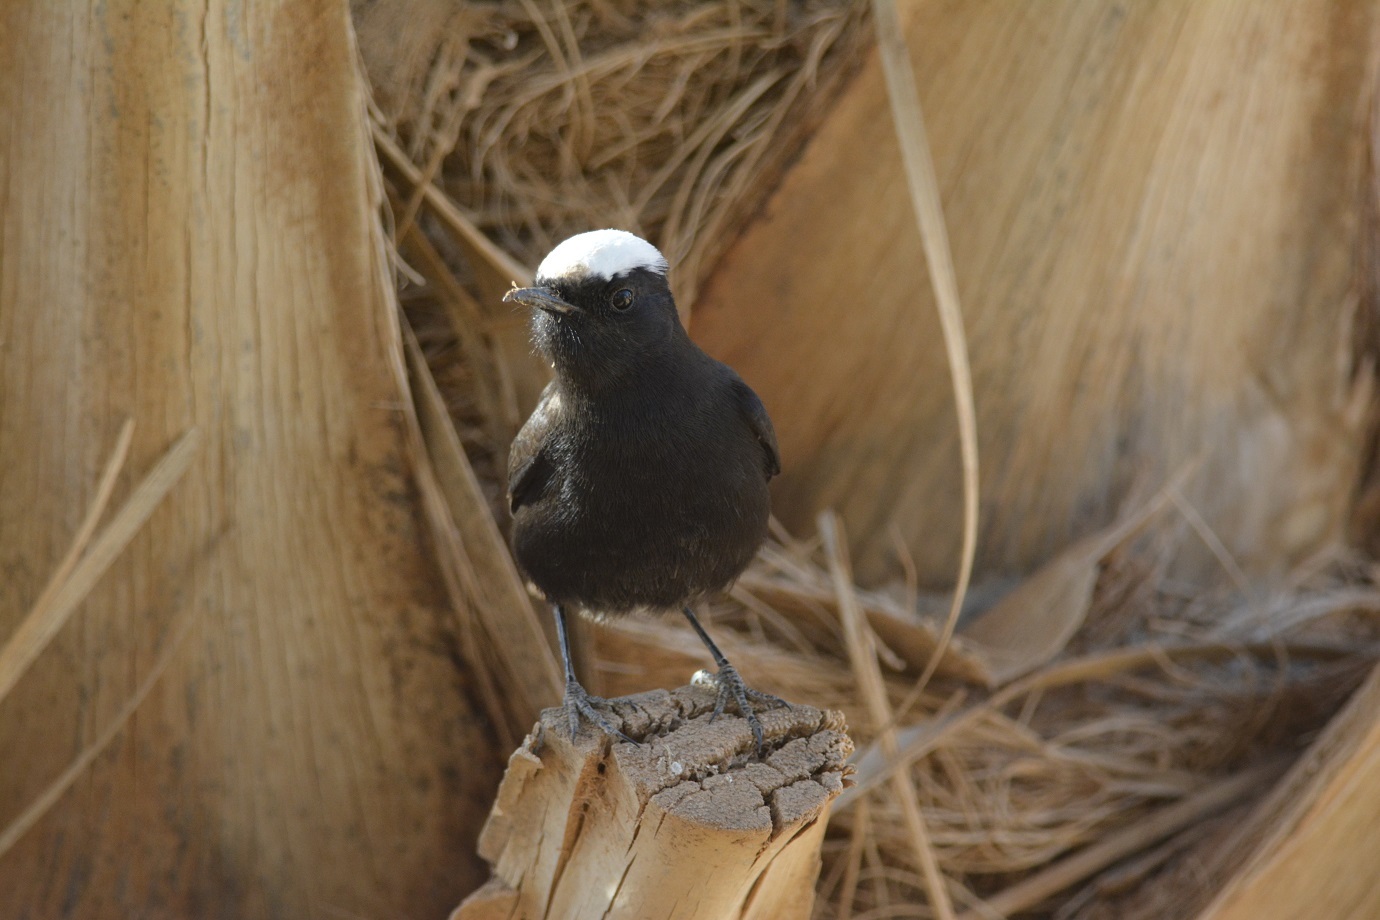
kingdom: Animalia
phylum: Chordata
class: Aves
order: Passeriformes
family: Muscicapidae
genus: Oenanthe
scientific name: Oenanthe leucopyga
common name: White-crowned wheatear
